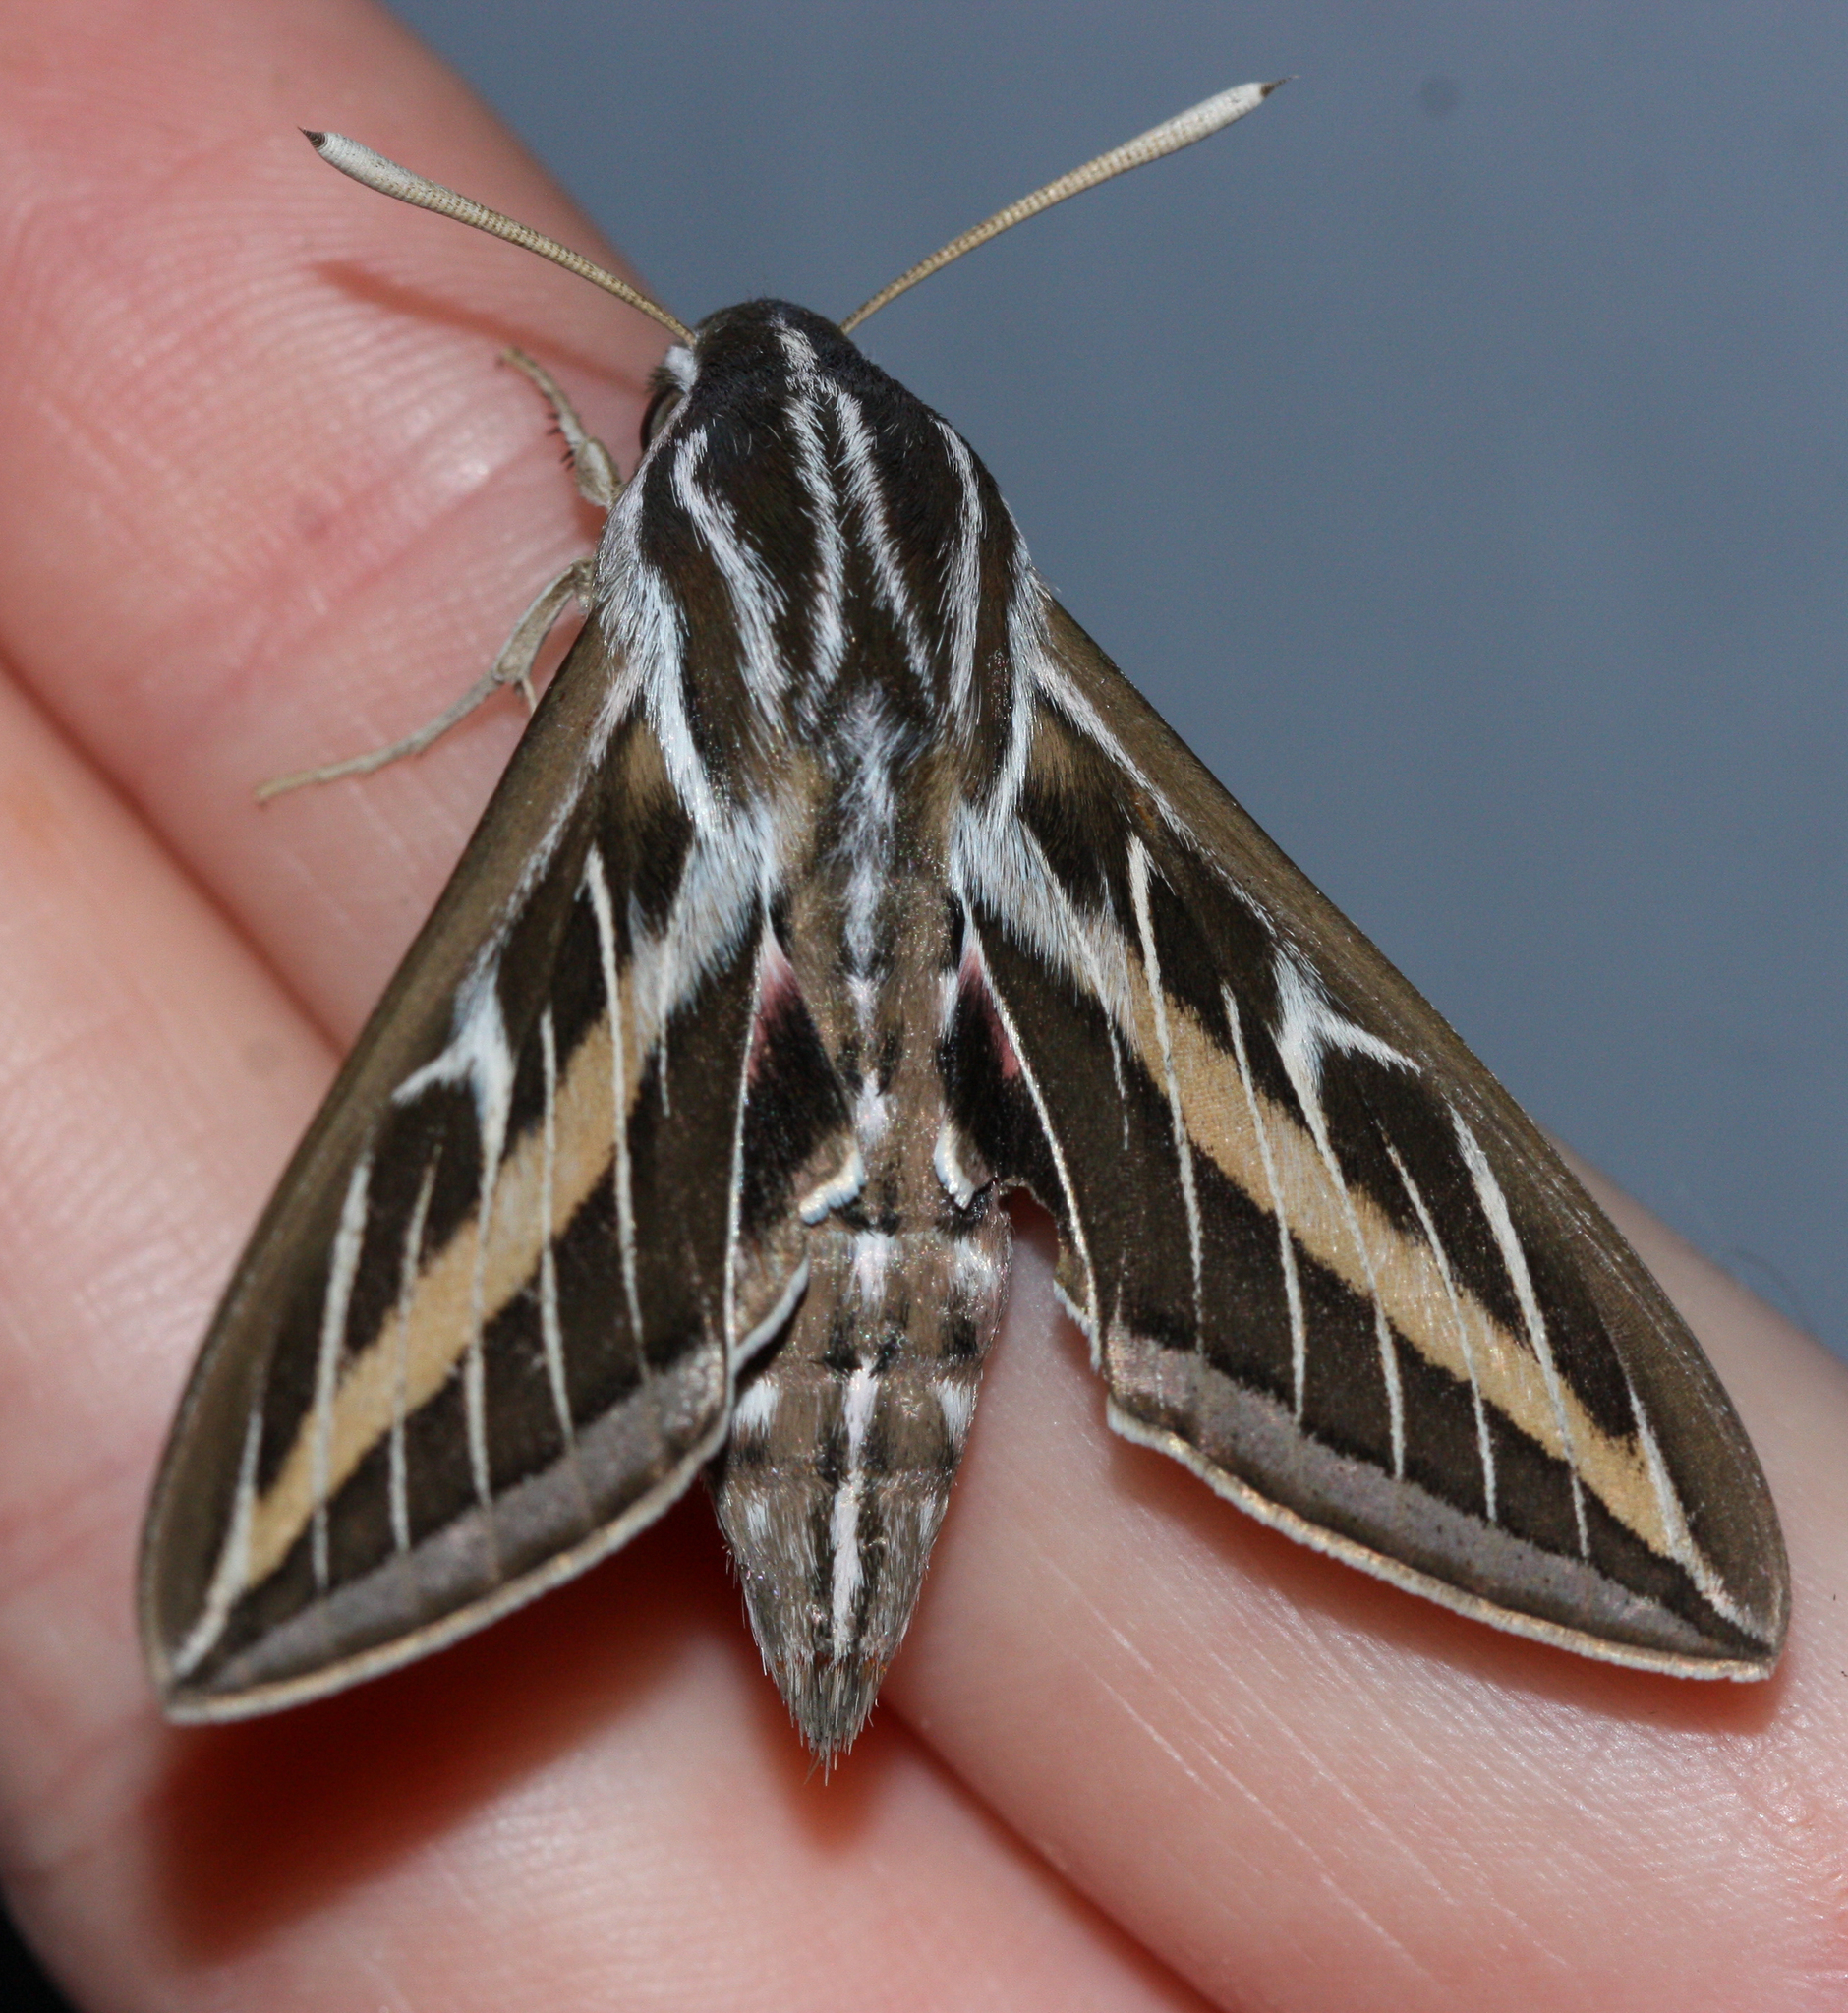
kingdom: Animalia
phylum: Arthropoda
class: Insecta
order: Lepidoptera
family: Sphingidae
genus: Hyles
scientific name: Hyles lineata
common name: White-lined sphinx
